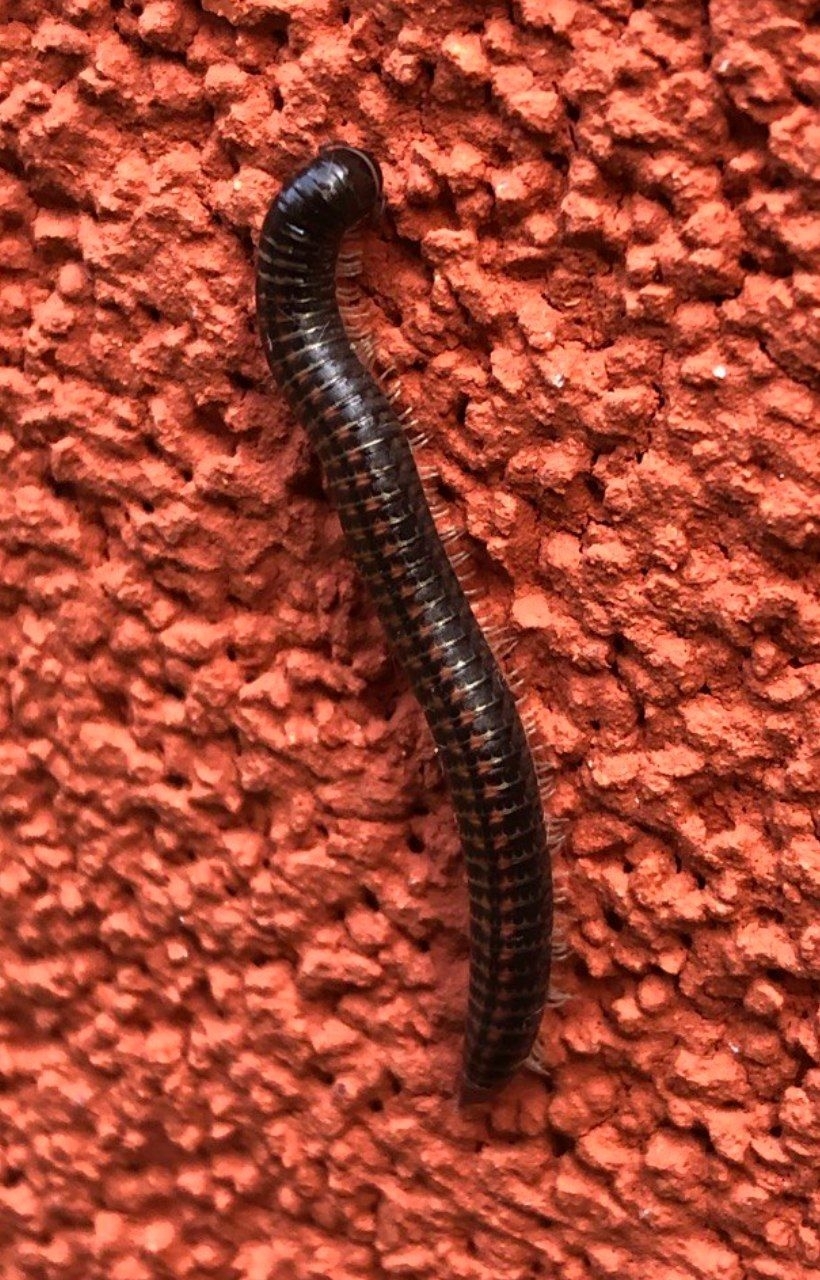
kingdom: Animalia
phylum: Arthropoda
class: Diplopoda
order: Julida
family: Julidae
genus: Ommatoiulus
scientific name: Ommatoiulus sabulosus
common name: Striped millipede
